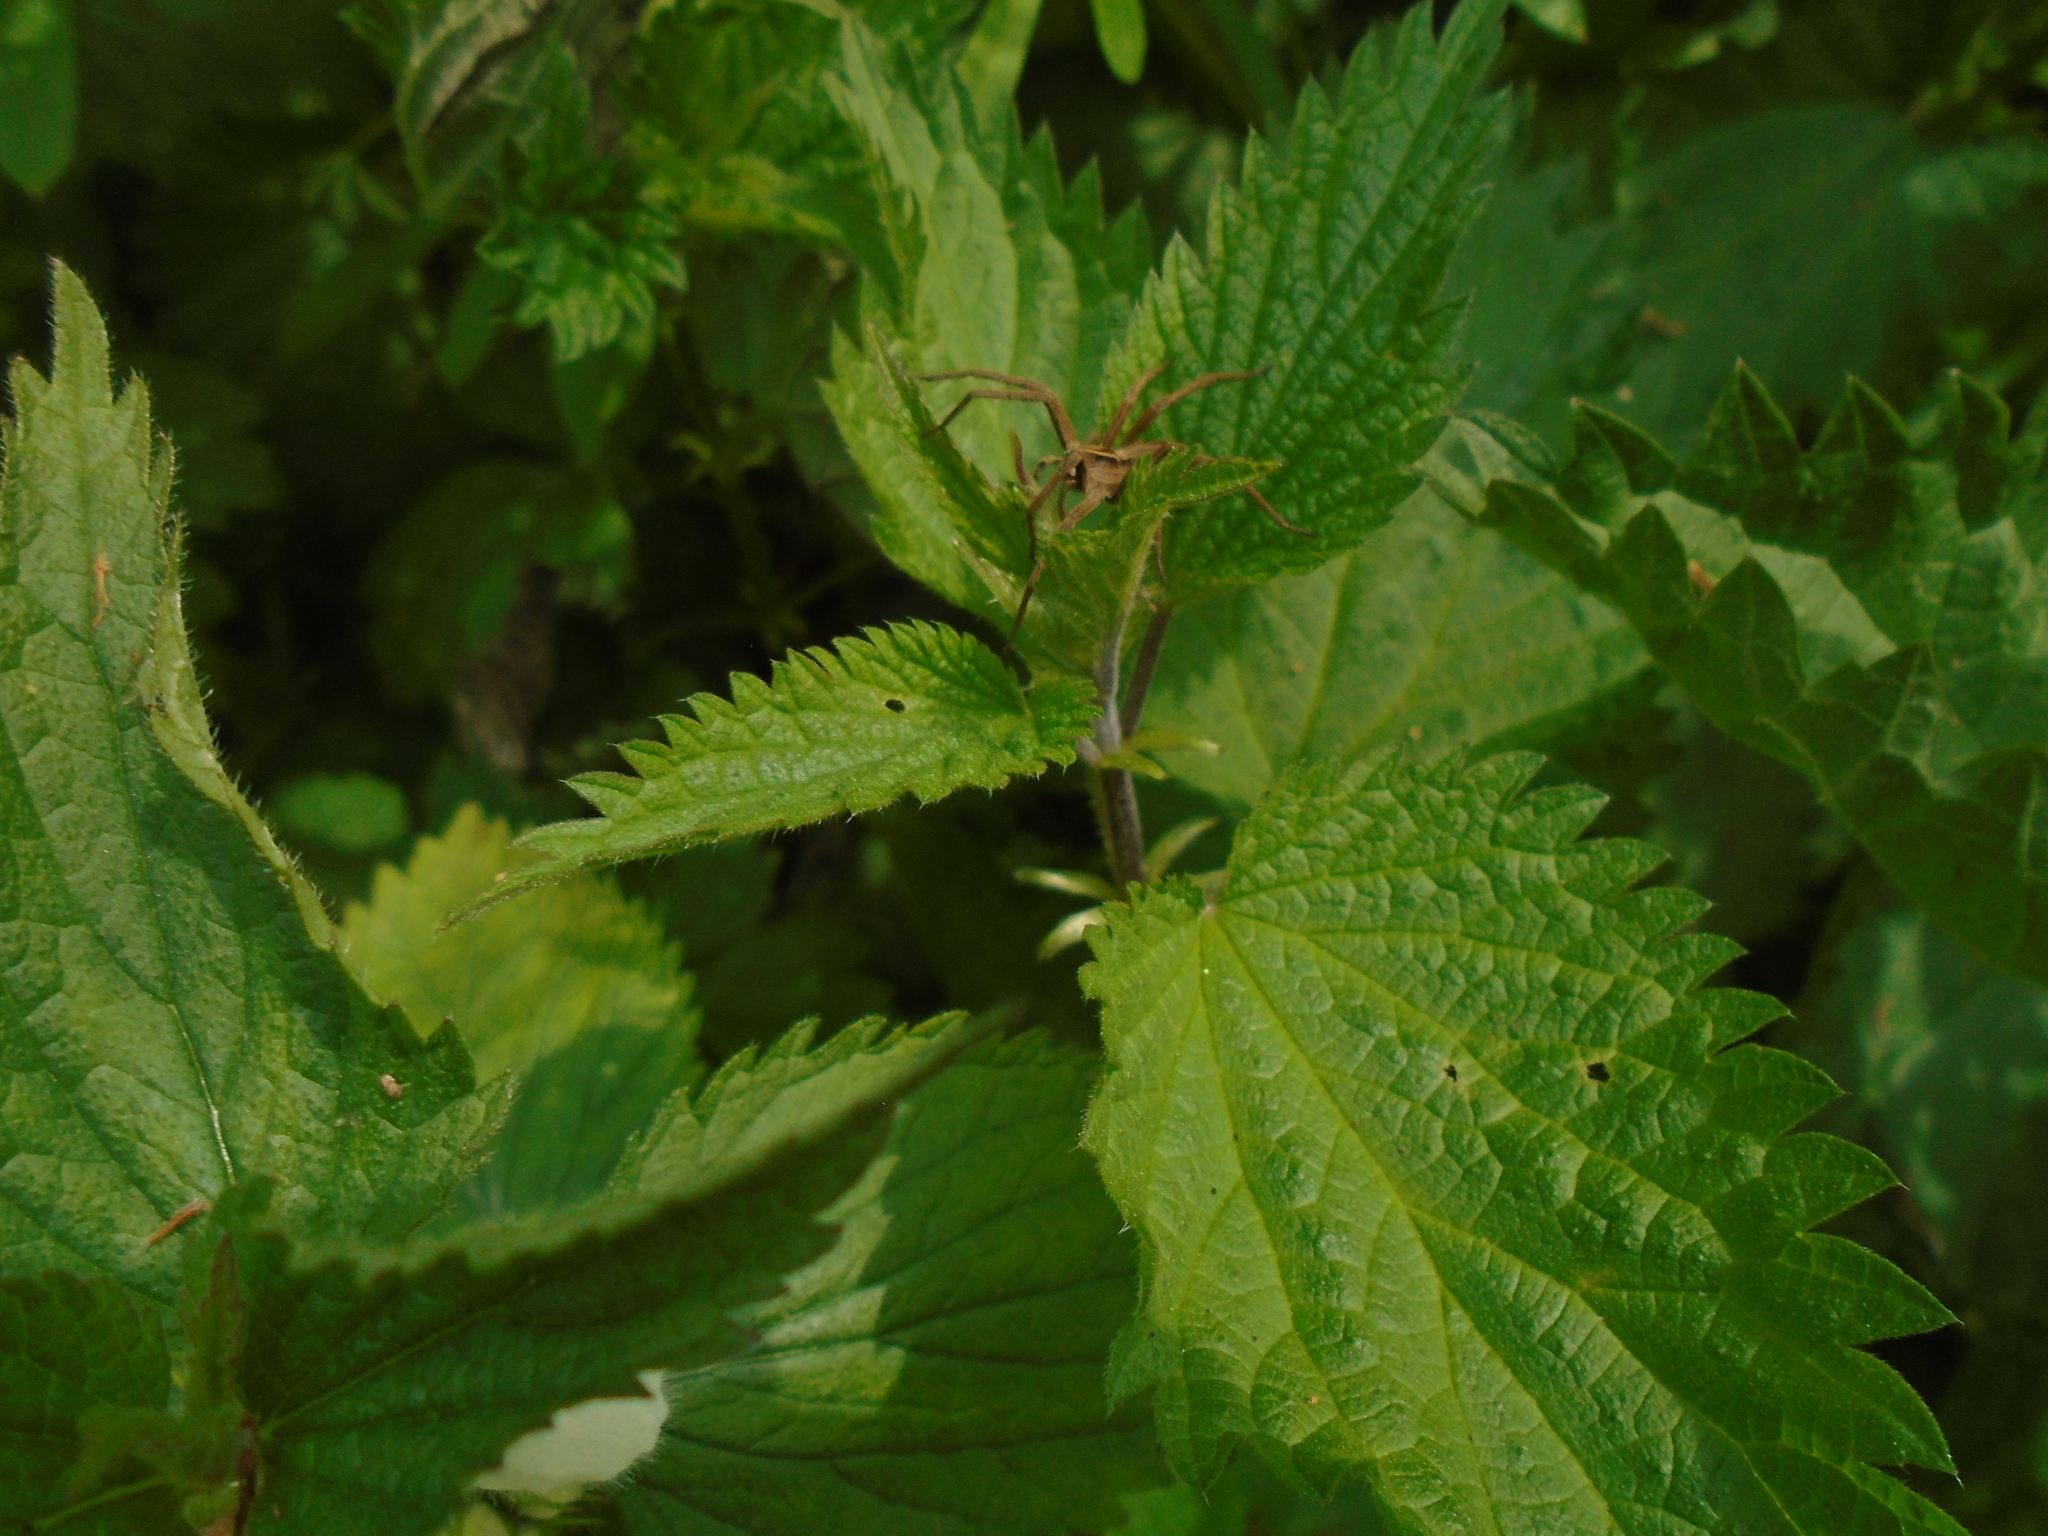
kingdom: Animalia
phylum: Arthropoda
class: Arachnida
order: Araneae
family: Pisauridae
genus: Pisaura
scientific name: Pisaura mirabilis
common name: Tent spider
